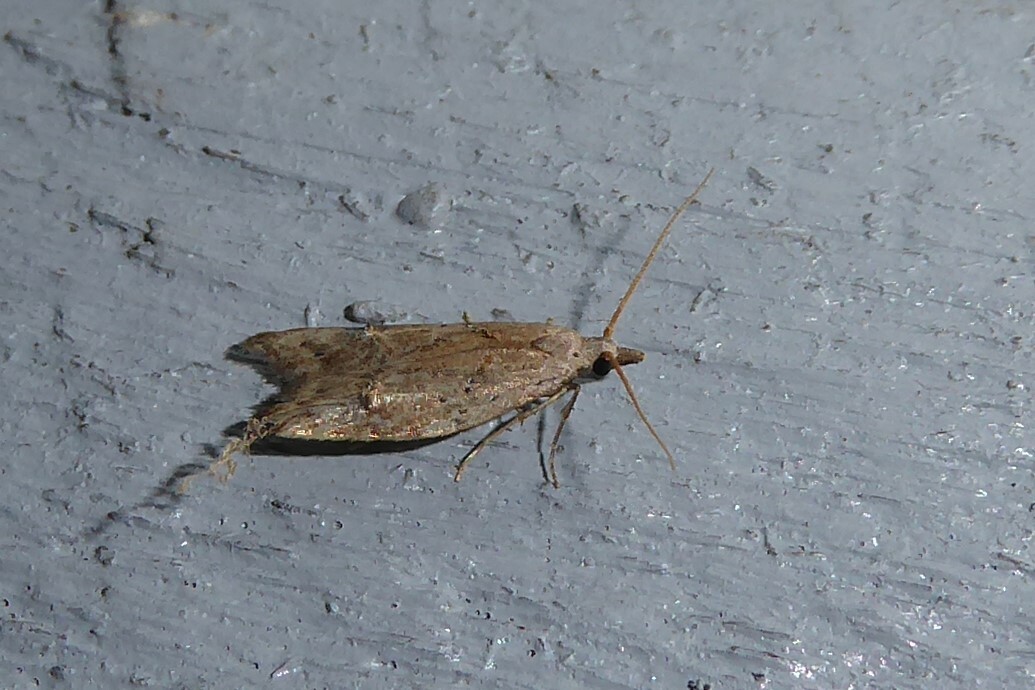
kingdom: Animalia
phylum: Arthropoda
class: Insecta
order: Lepidoptera
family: Carposinidae
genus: Carposina
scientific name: Carposina rubophaga
